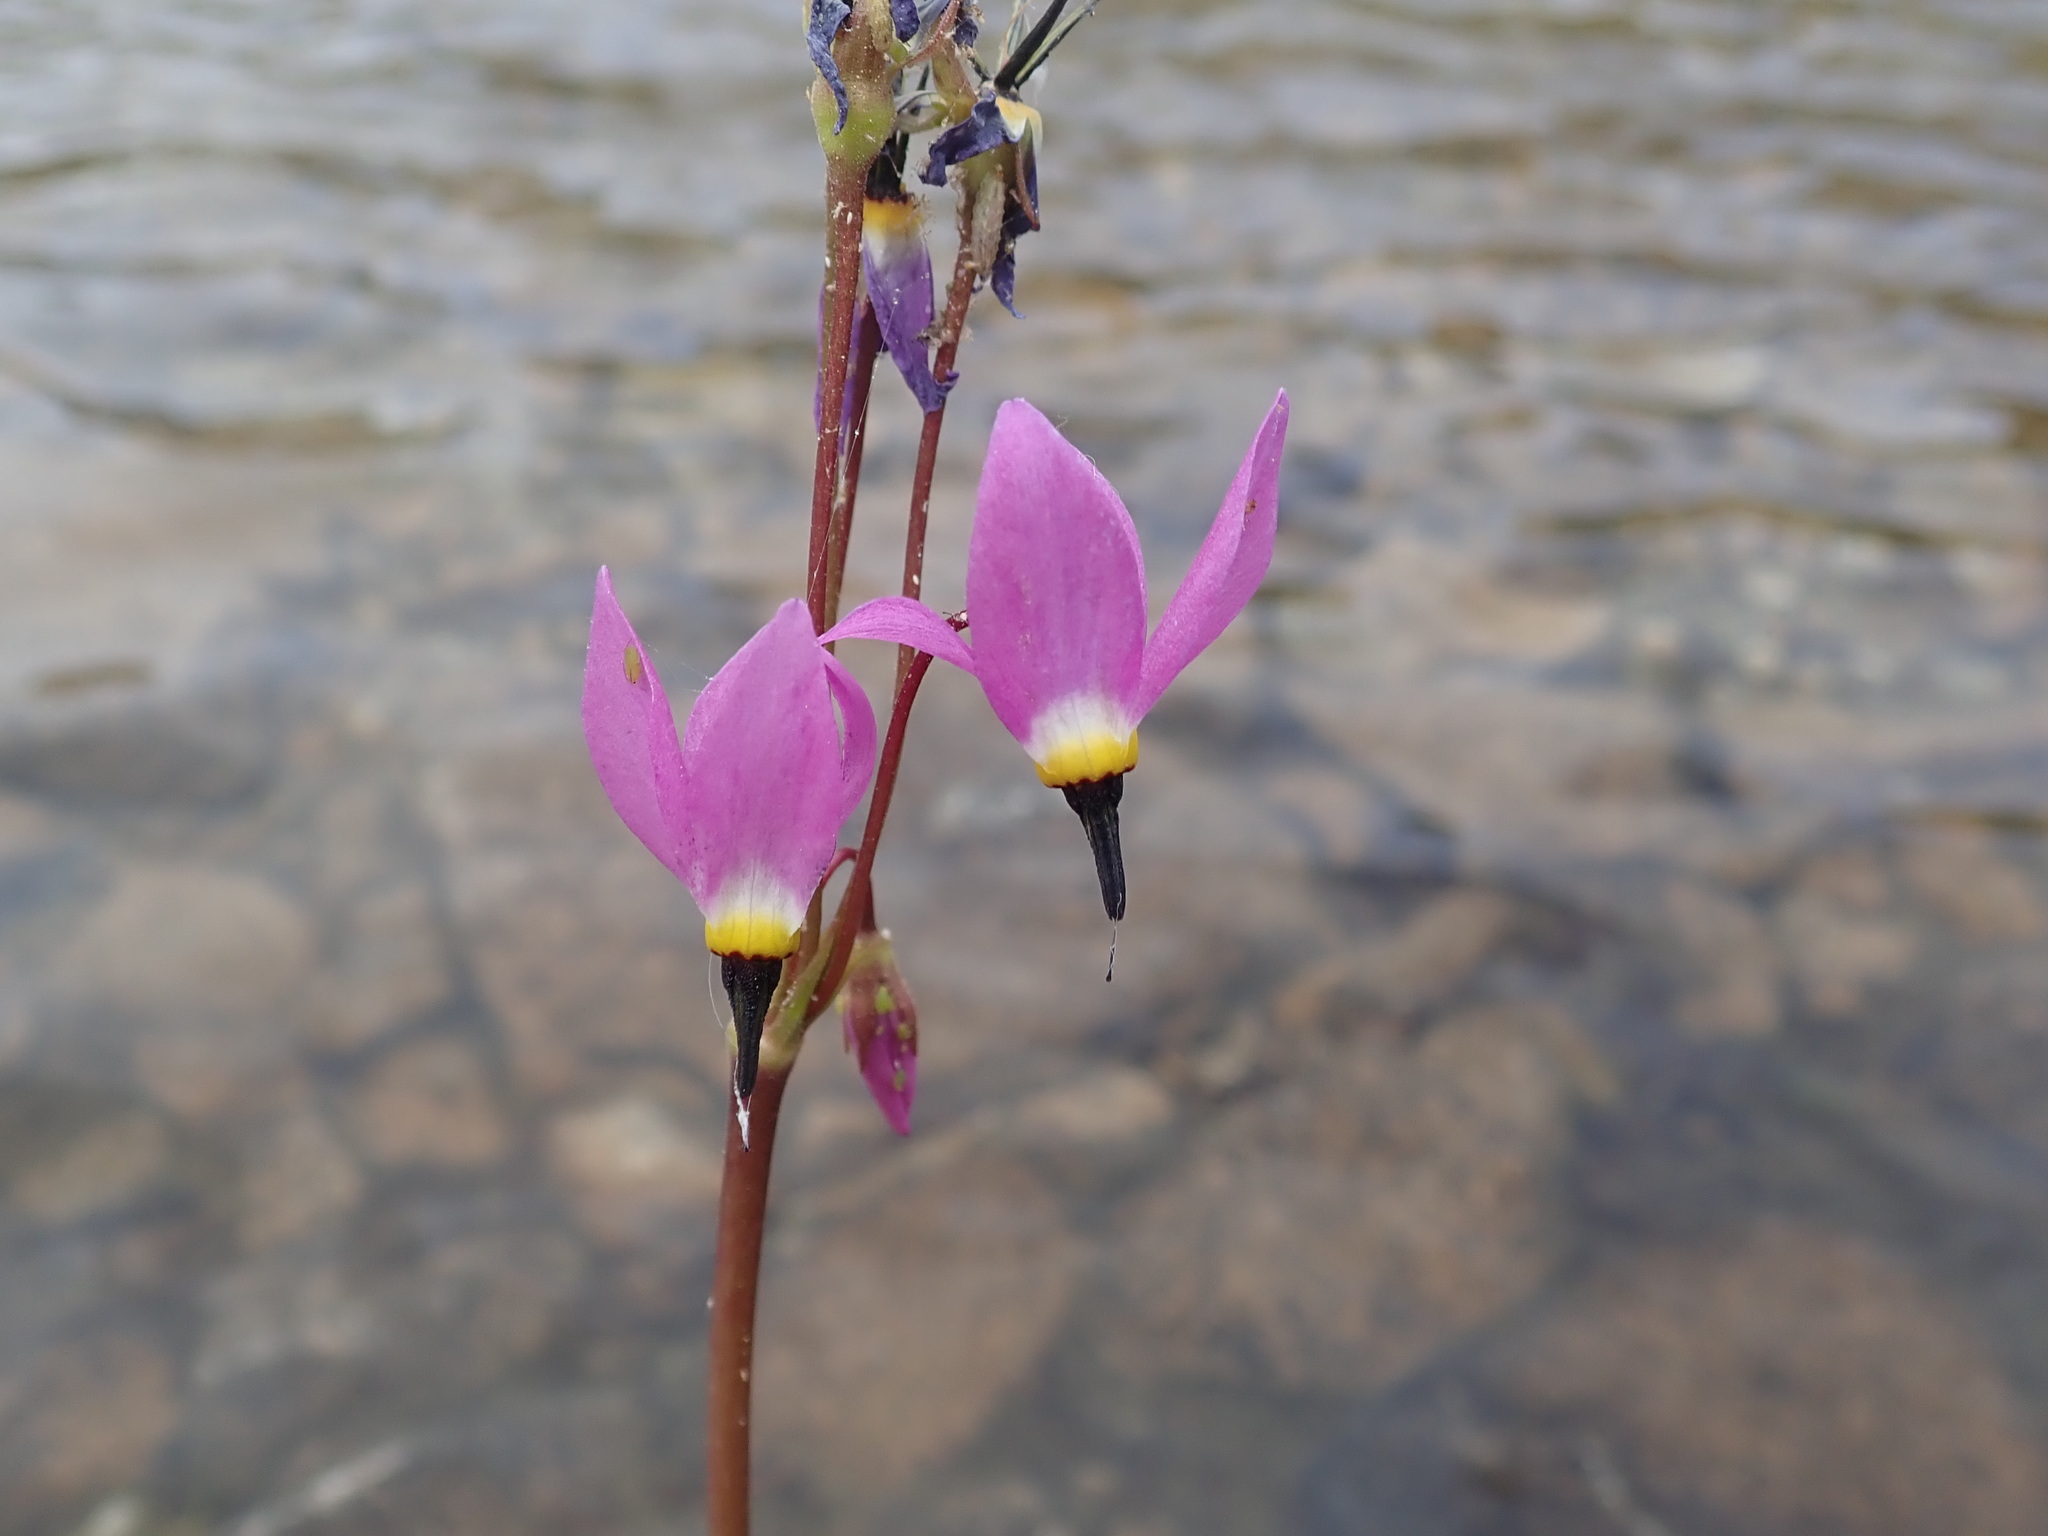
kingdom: Plantae
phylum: Tracheophyta
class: Magnoliopsida
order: Ericales
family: Primulaceae
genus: Dodecatheon
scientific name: Dodecatheon alpinum
